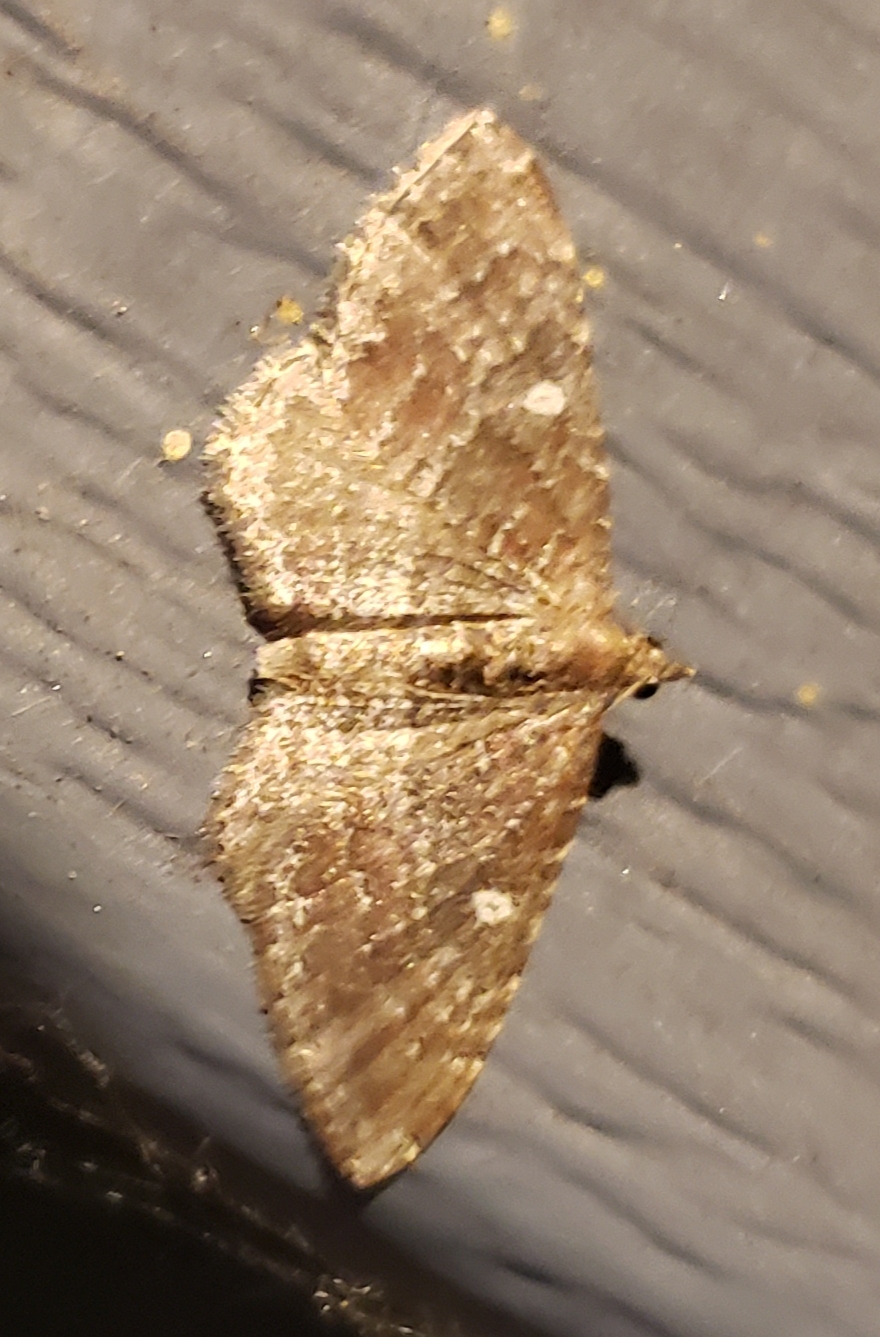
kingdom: Animalia
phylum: Arthropoda
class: Insecta
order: Lepidoptera
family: Geometridae
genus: Orthonama
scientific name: Orthonama obstipata
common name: The gem
